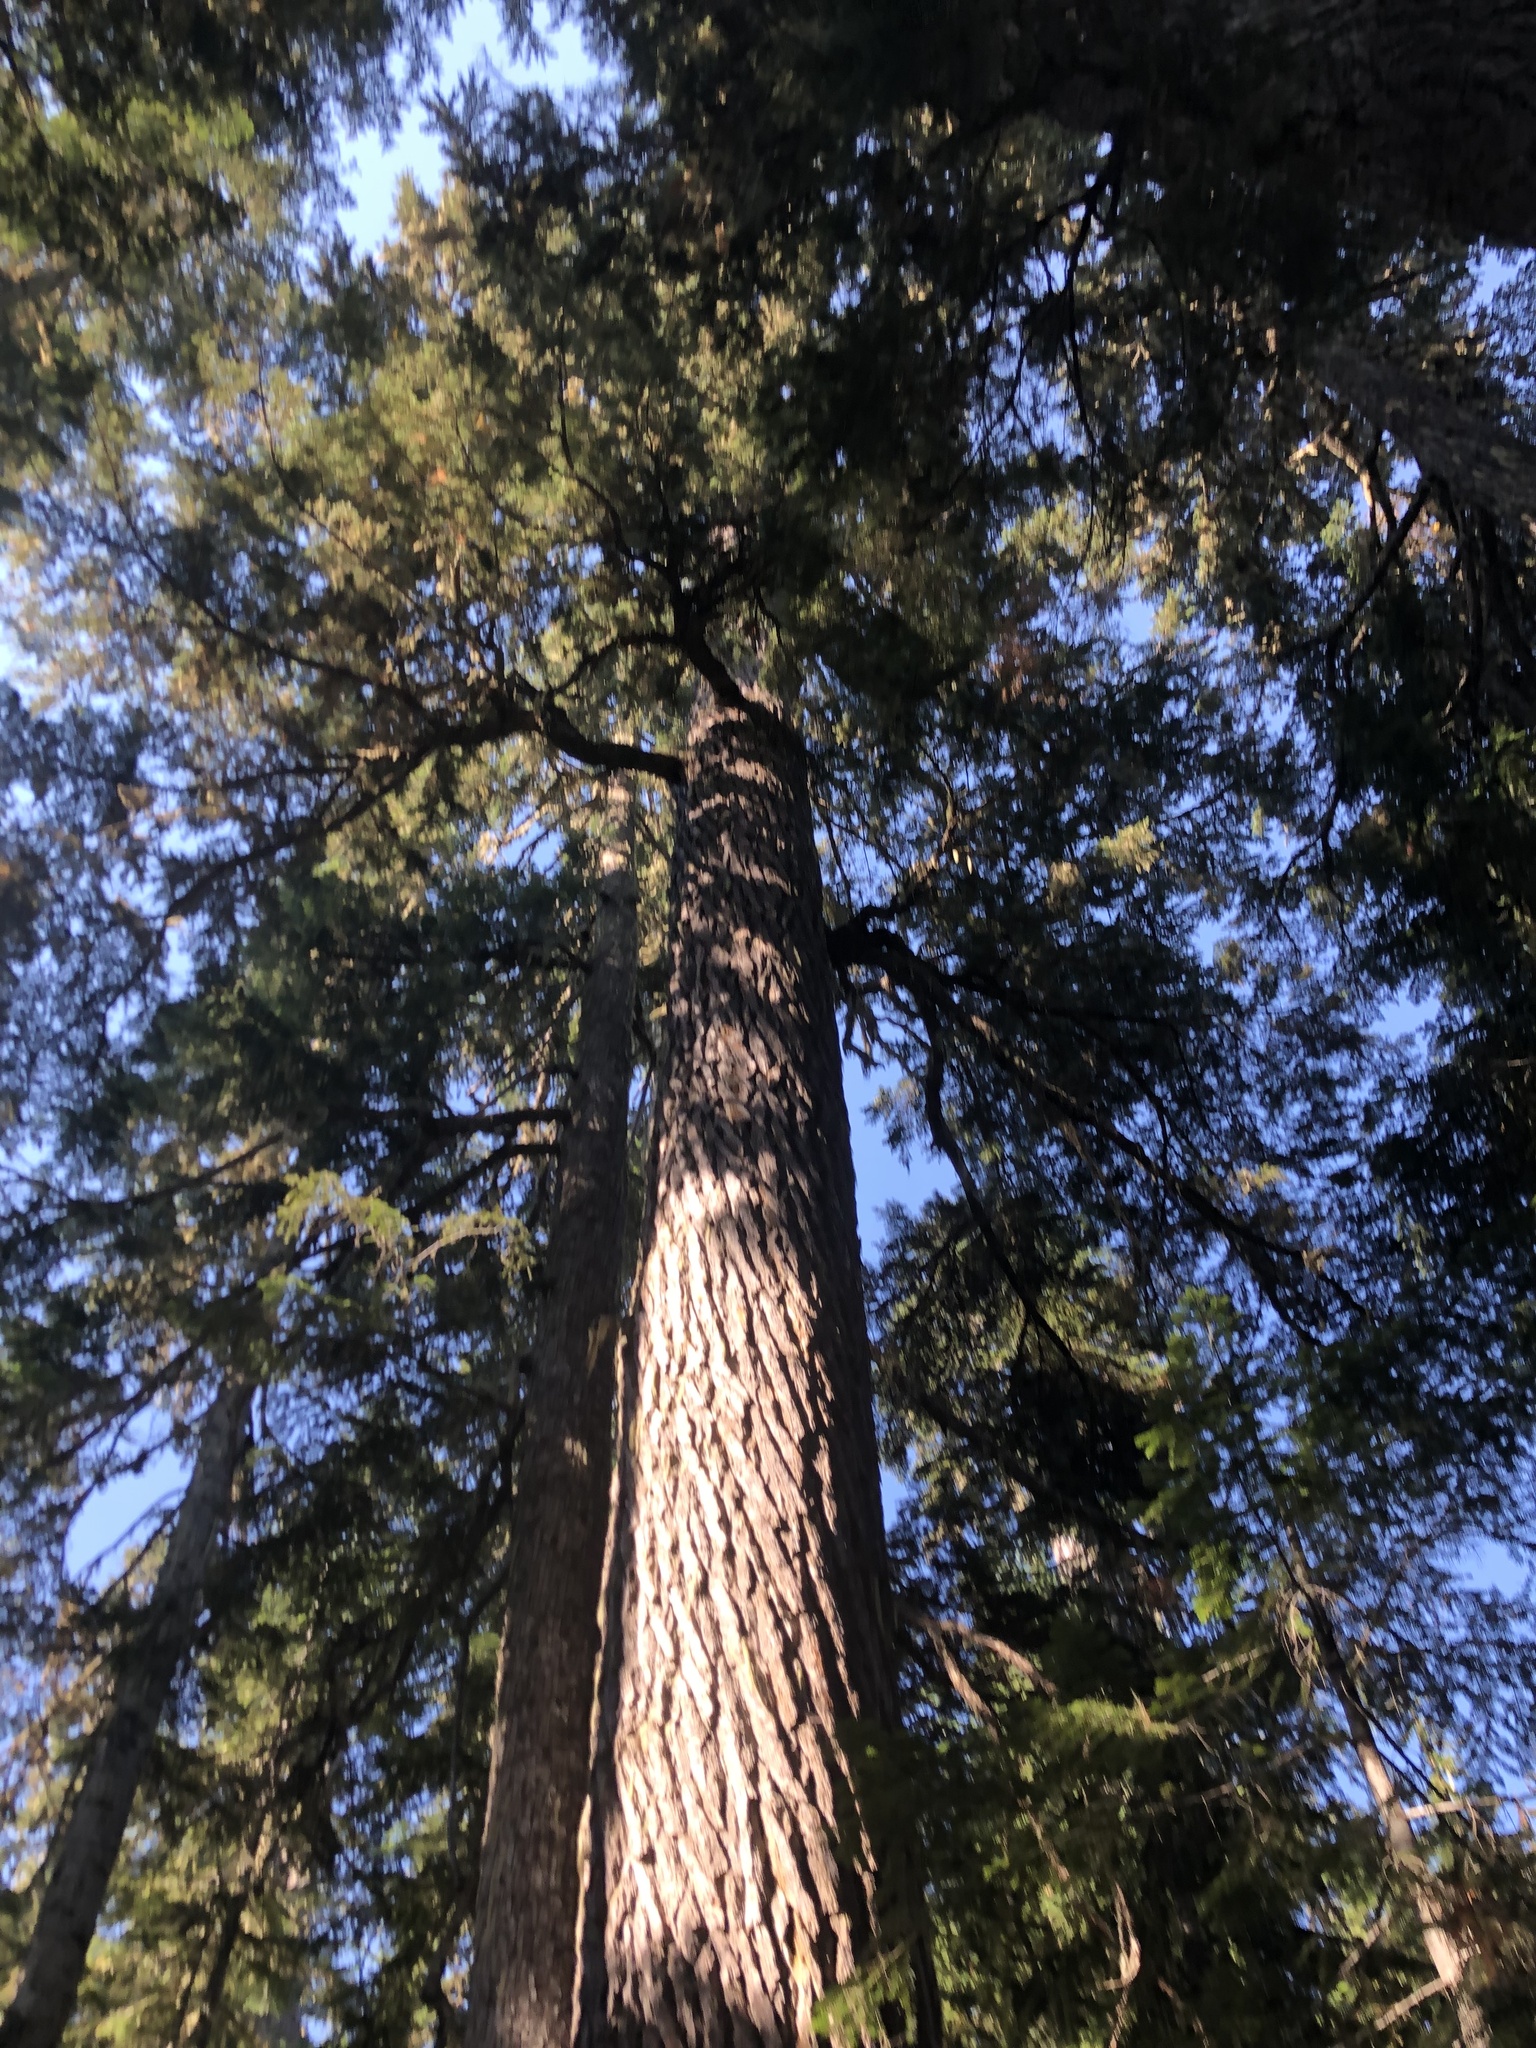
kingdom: Plantae
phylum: Tracheophyta
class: Pinopsida
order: Pinales
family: Pinaceae
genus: Tsuga
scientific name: Tsuga mertensiana
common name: Mountain hemlock
